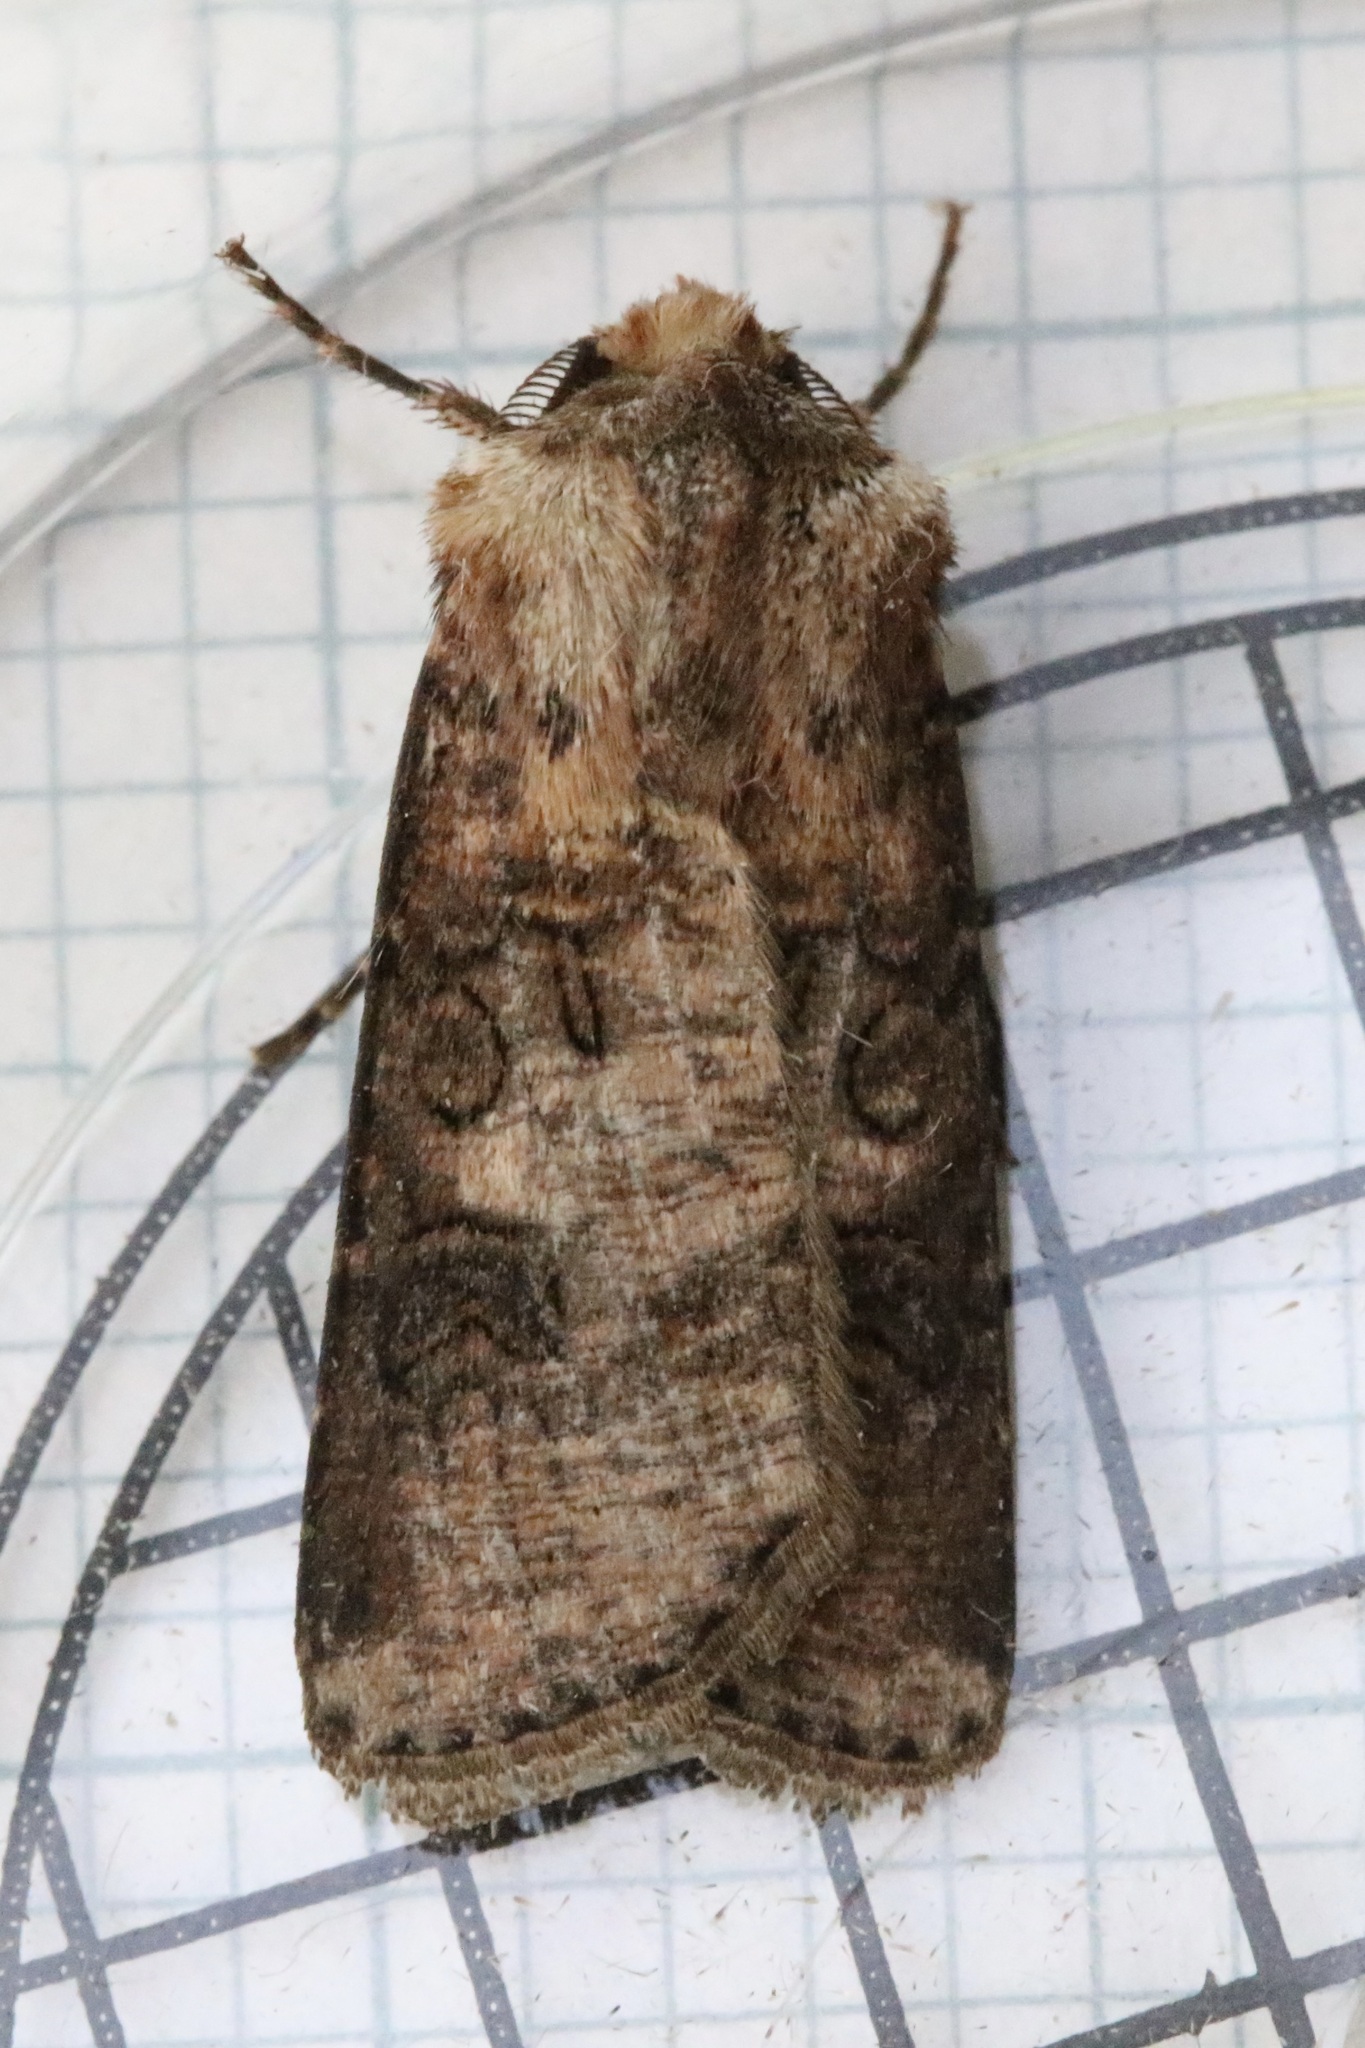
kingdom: Animalia
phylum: Arthropoda
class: Insecta
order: Lepidoptera
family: Noctuidae
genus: Agrotis
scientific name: Agrotis clavis
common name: Heart and club
